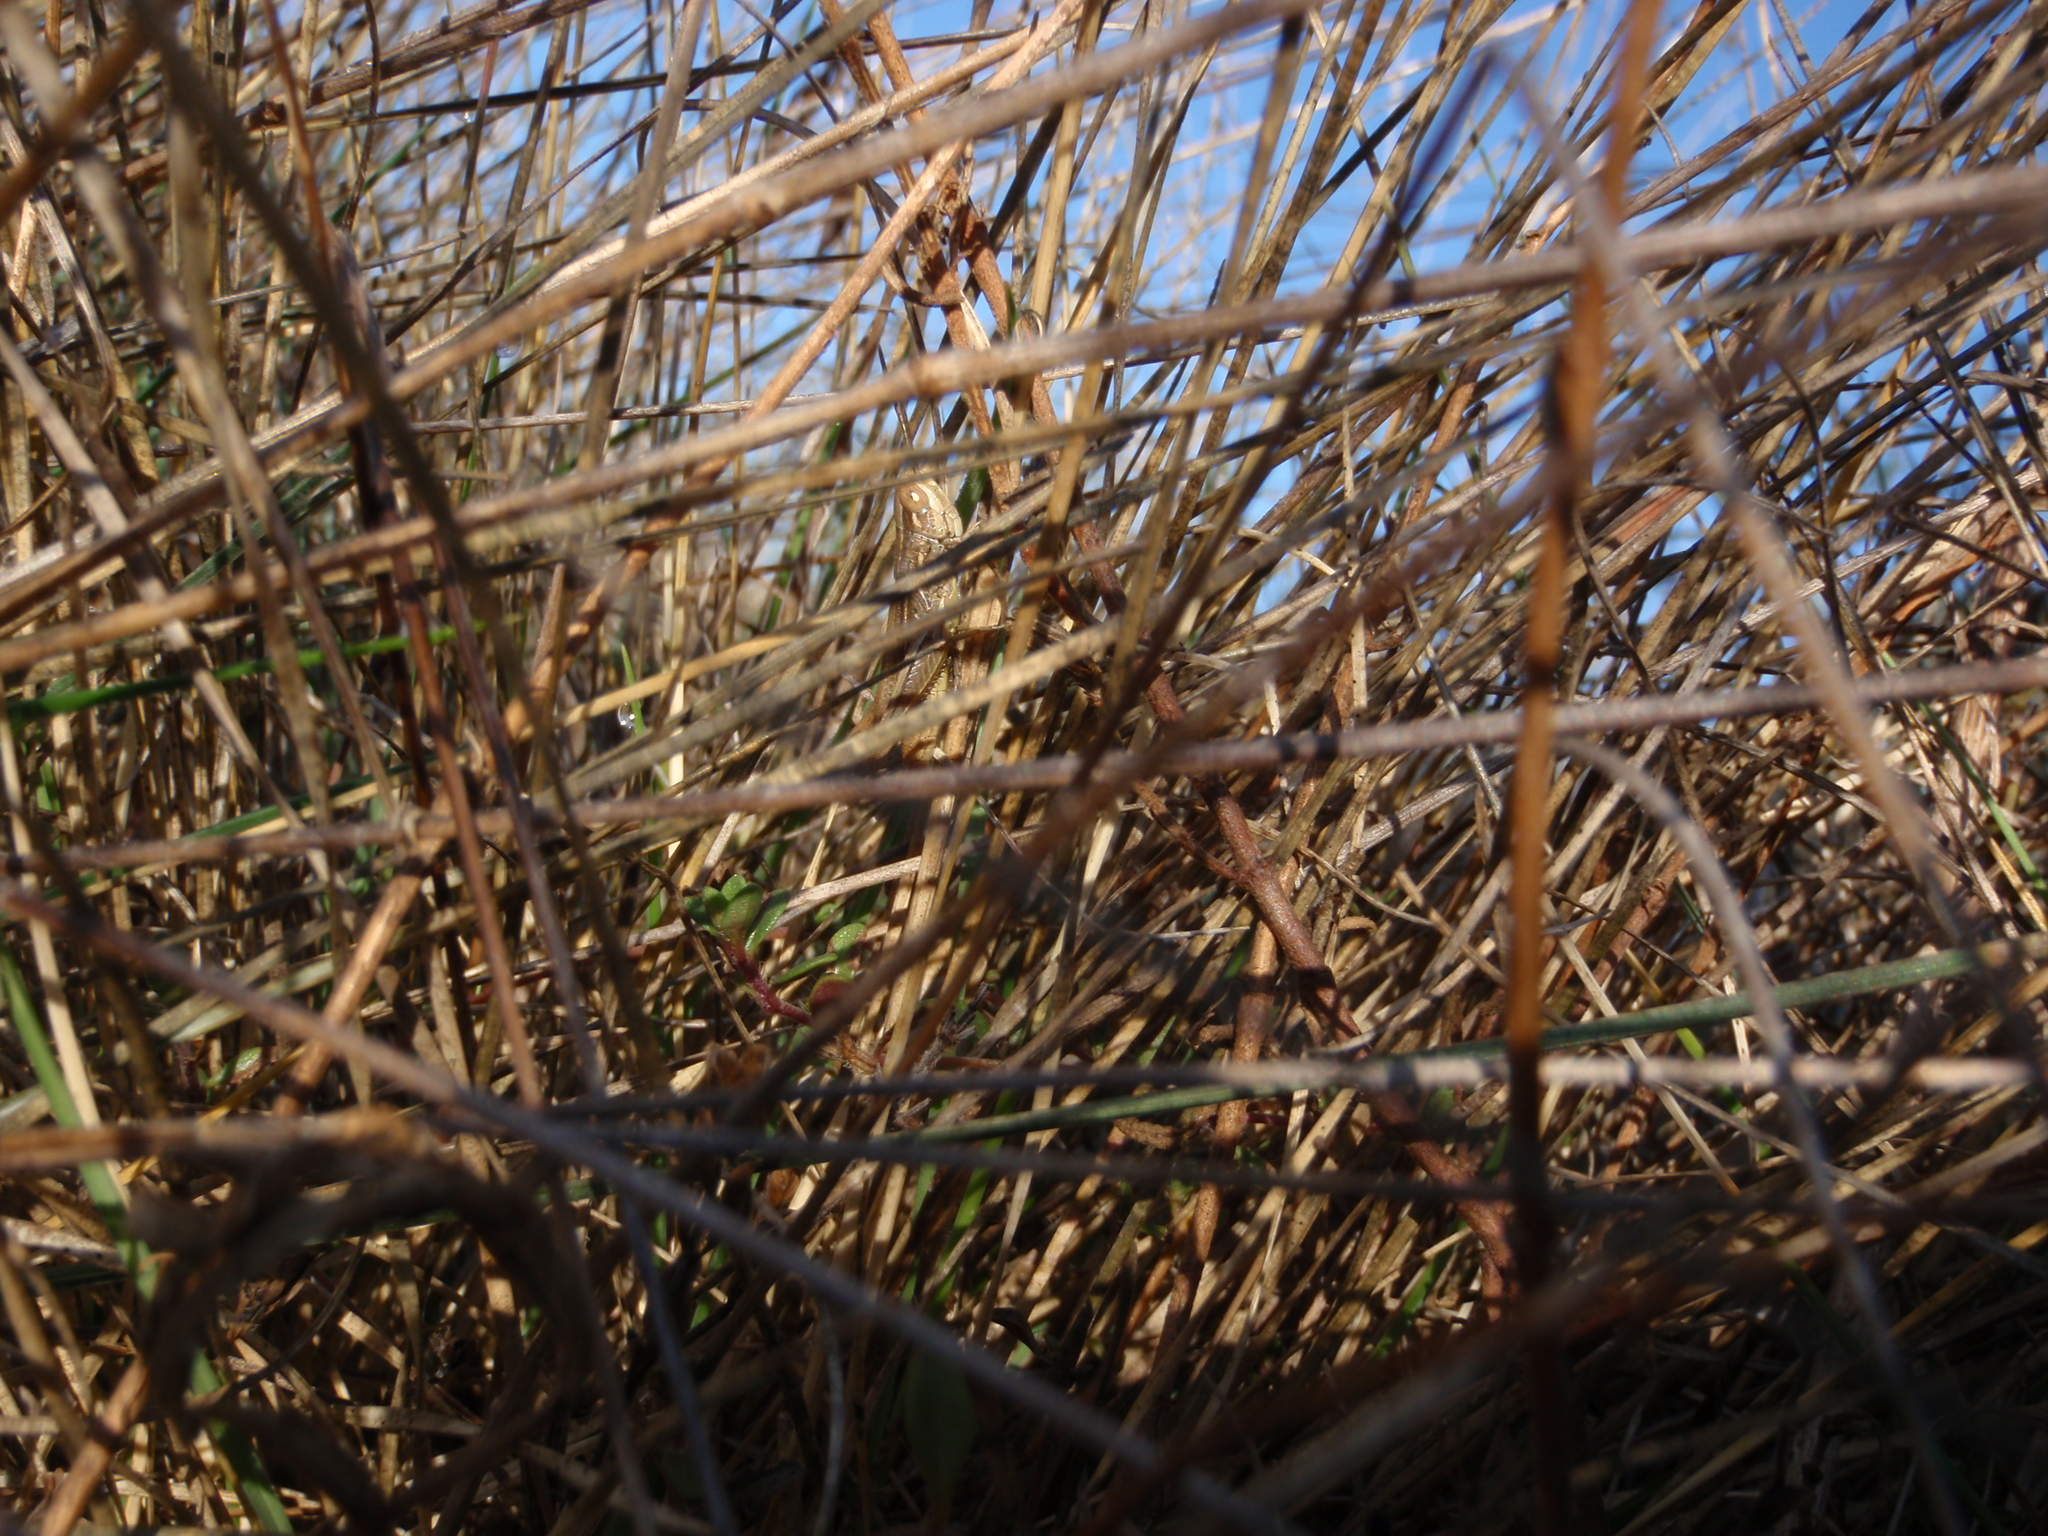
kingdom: Animalia
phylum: Arthropoda
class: Insecta
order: Orthoptera
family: Acrididae
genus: Euchorthippus
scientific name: Euchorthippus declivus
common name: Common straw grasshopper
